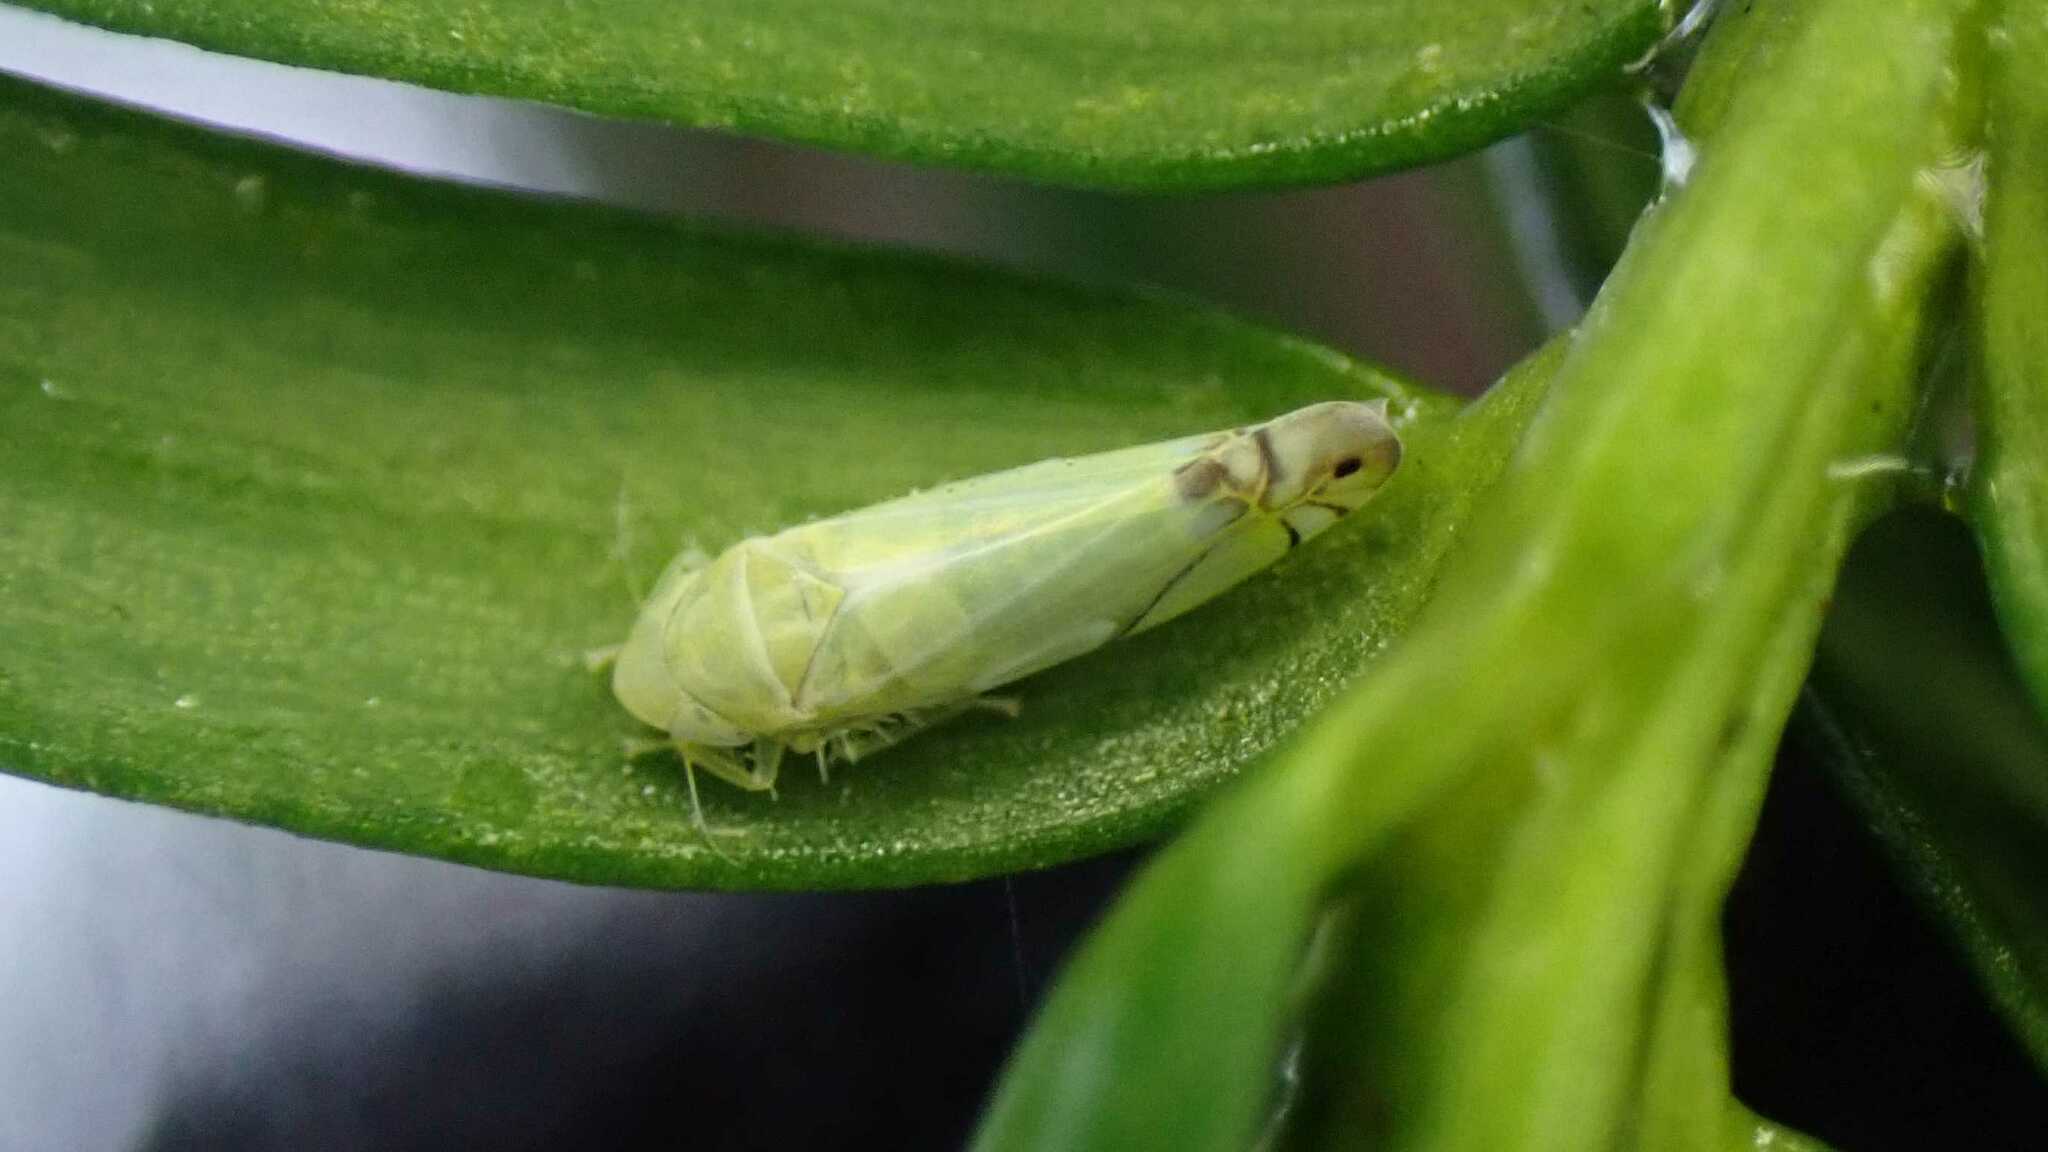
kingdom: Animalia
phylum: Arthropoda
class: Insecta
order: Hemiptera
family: Cicadellidae
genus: Zyginella
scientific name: Zyginella pulchra
